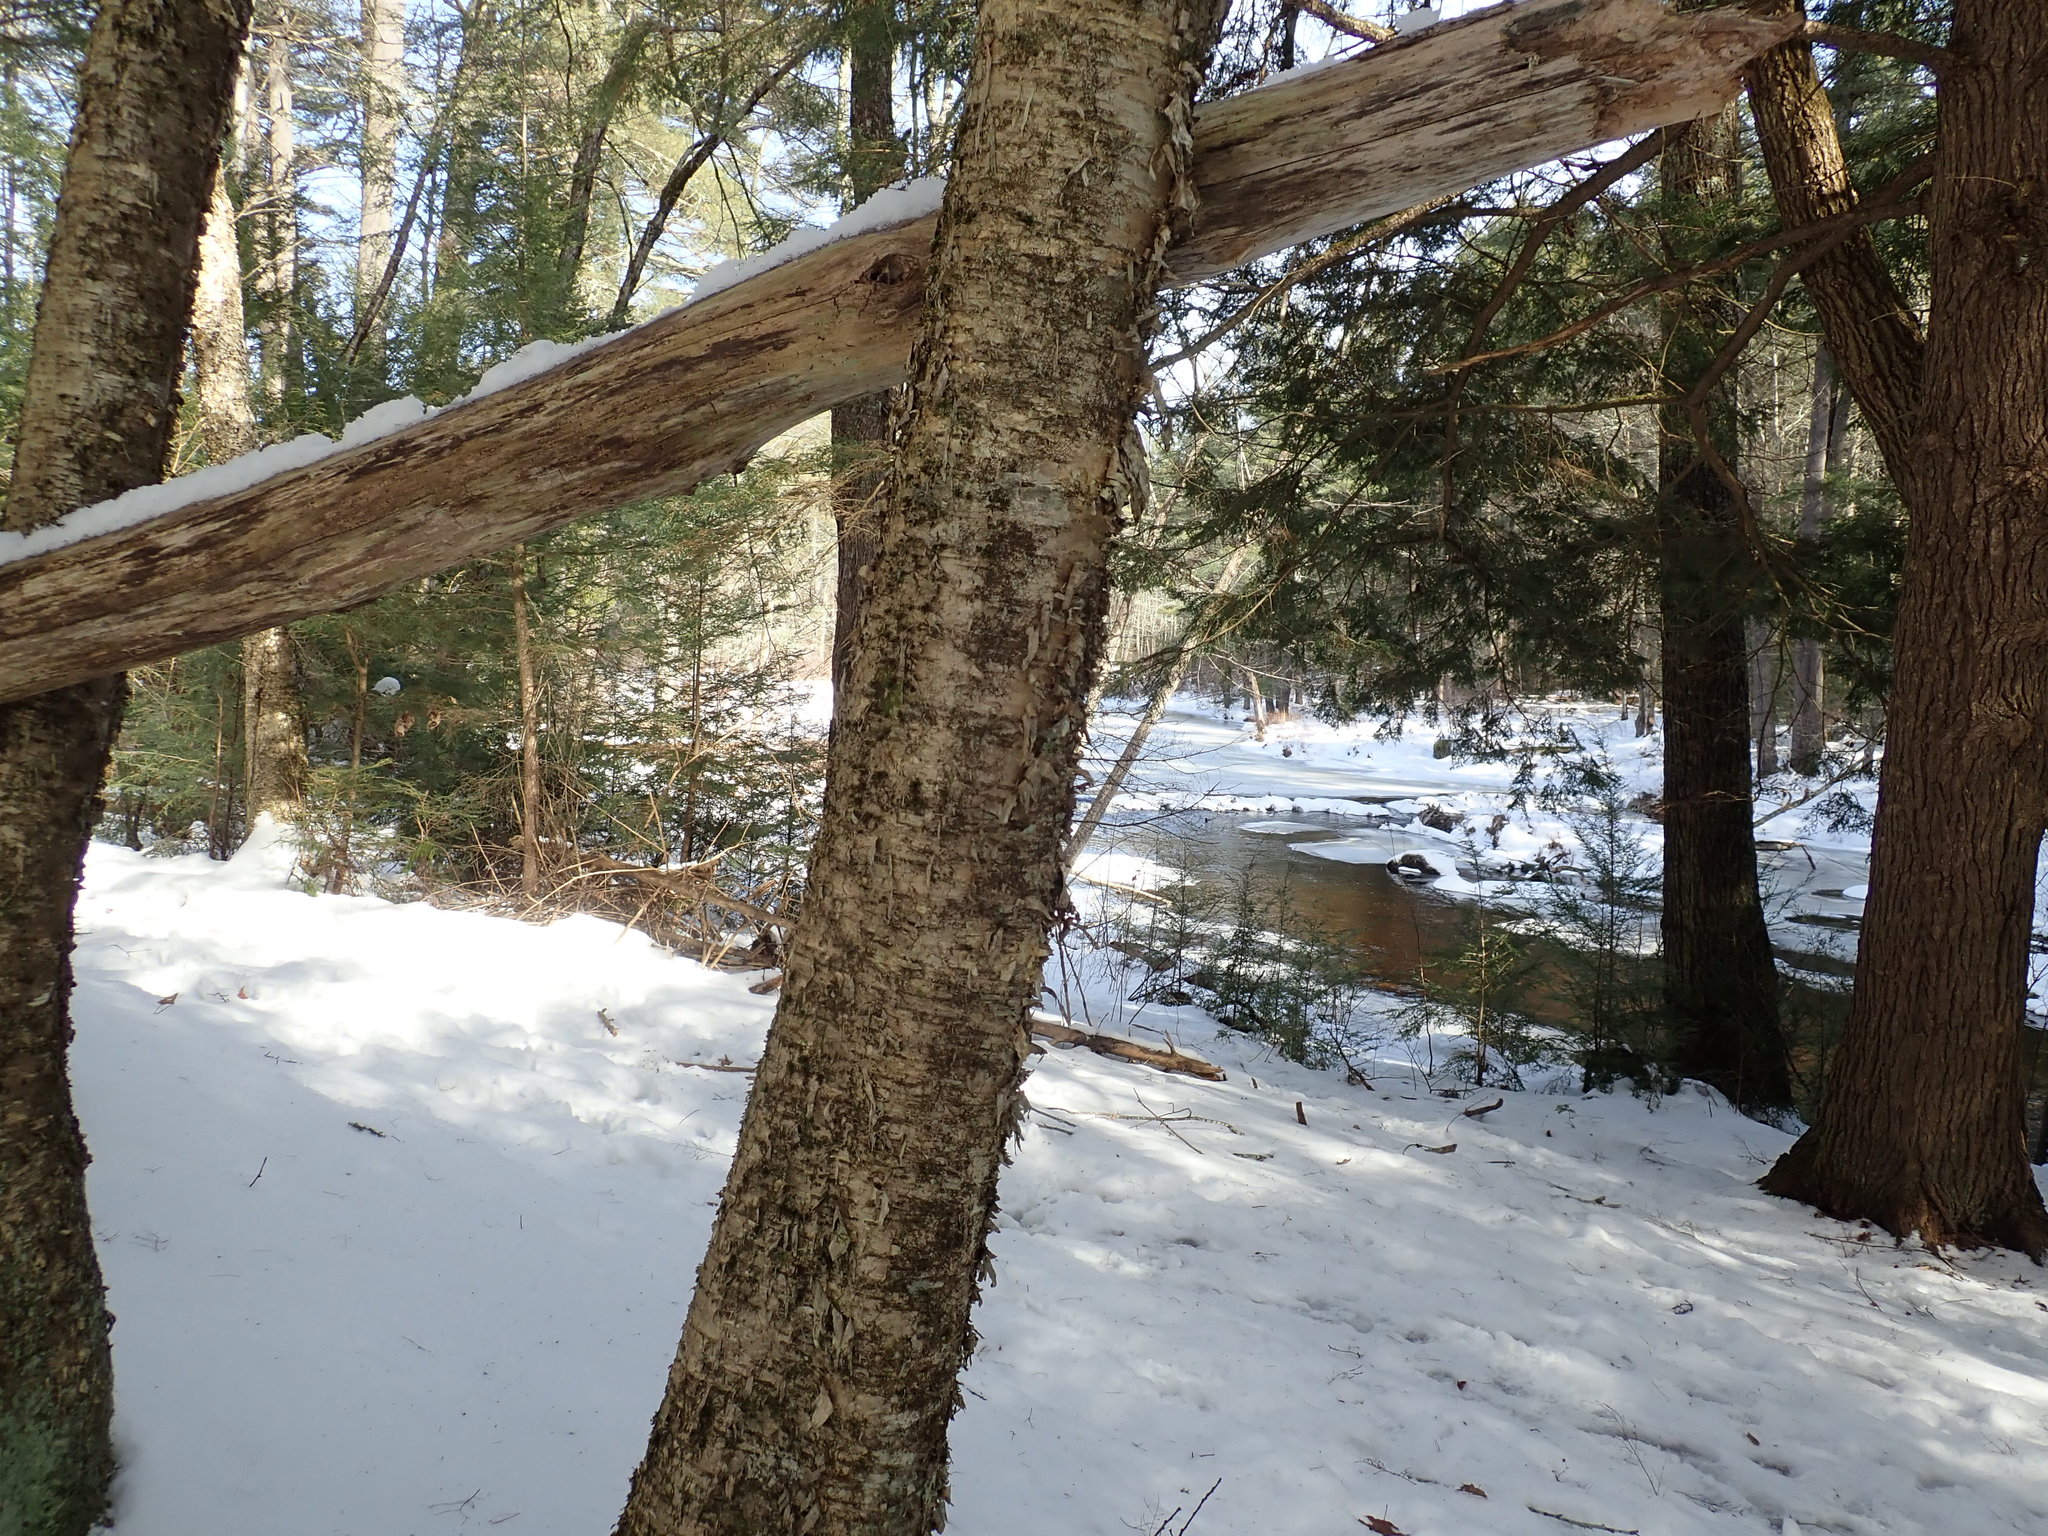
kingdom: Plantae
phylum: Tracheophyta
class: Magnoliopsida
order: Fagales
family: Betulaceae
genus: Betula
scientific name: Betula alleghaniensis
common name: Yellow birch
